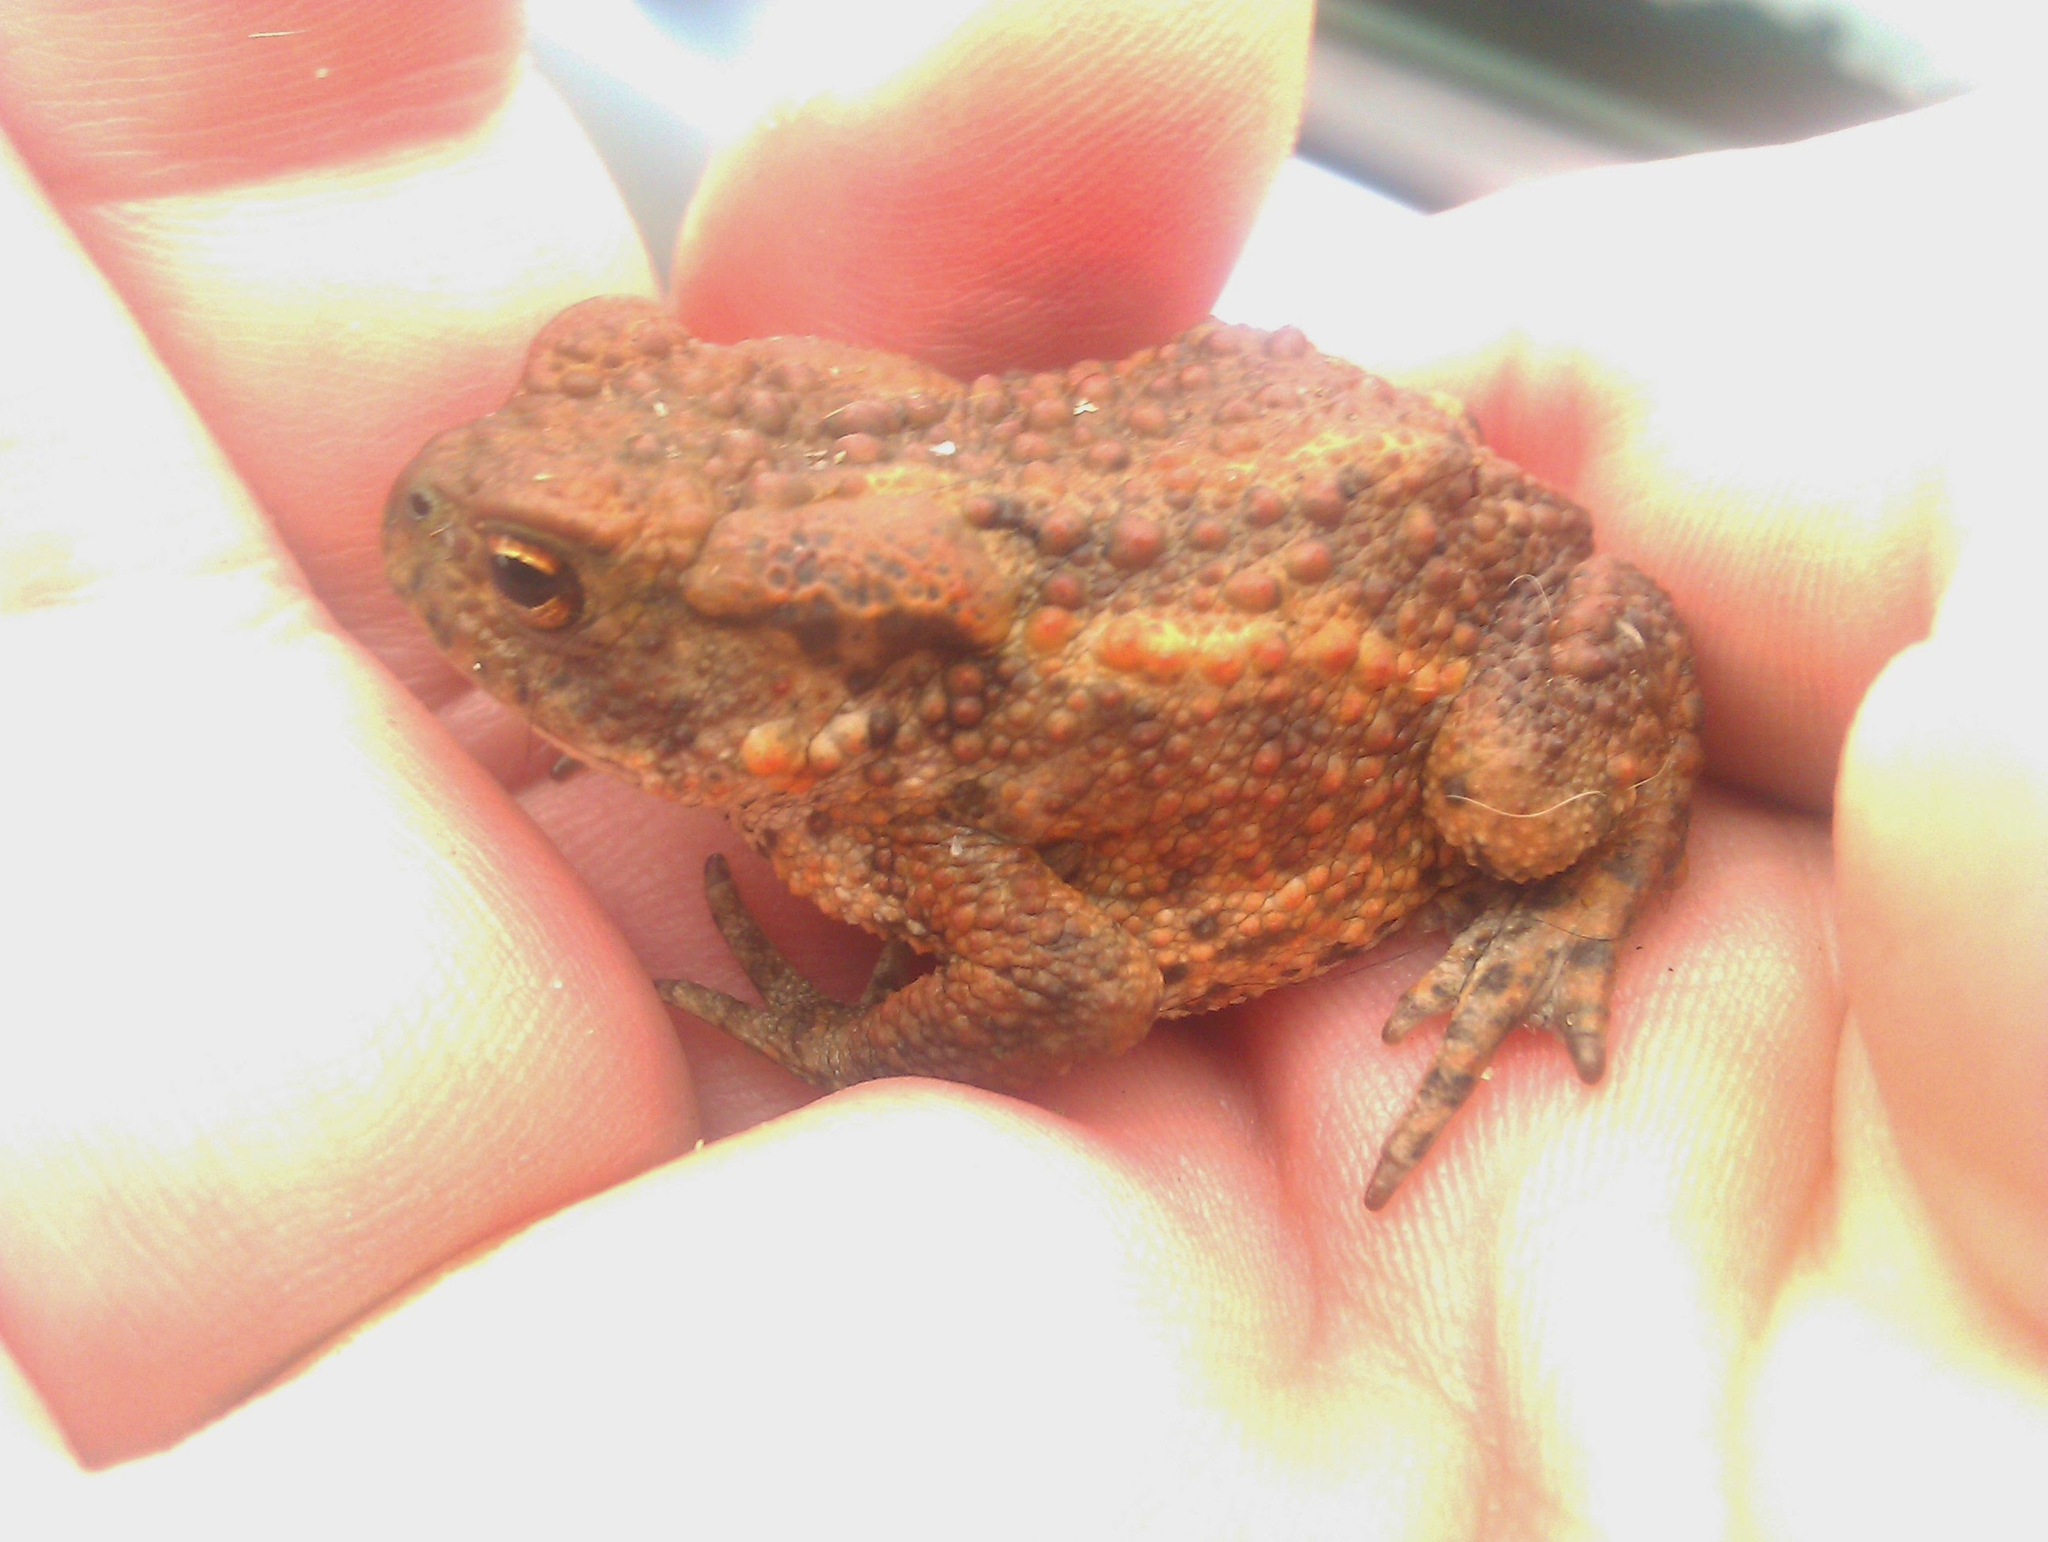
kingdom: Animalia
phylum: Chordata
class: Amphibia
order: Anura
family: Bufonidae
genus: Bufo
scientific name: Bufo bufo
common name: Common toad
